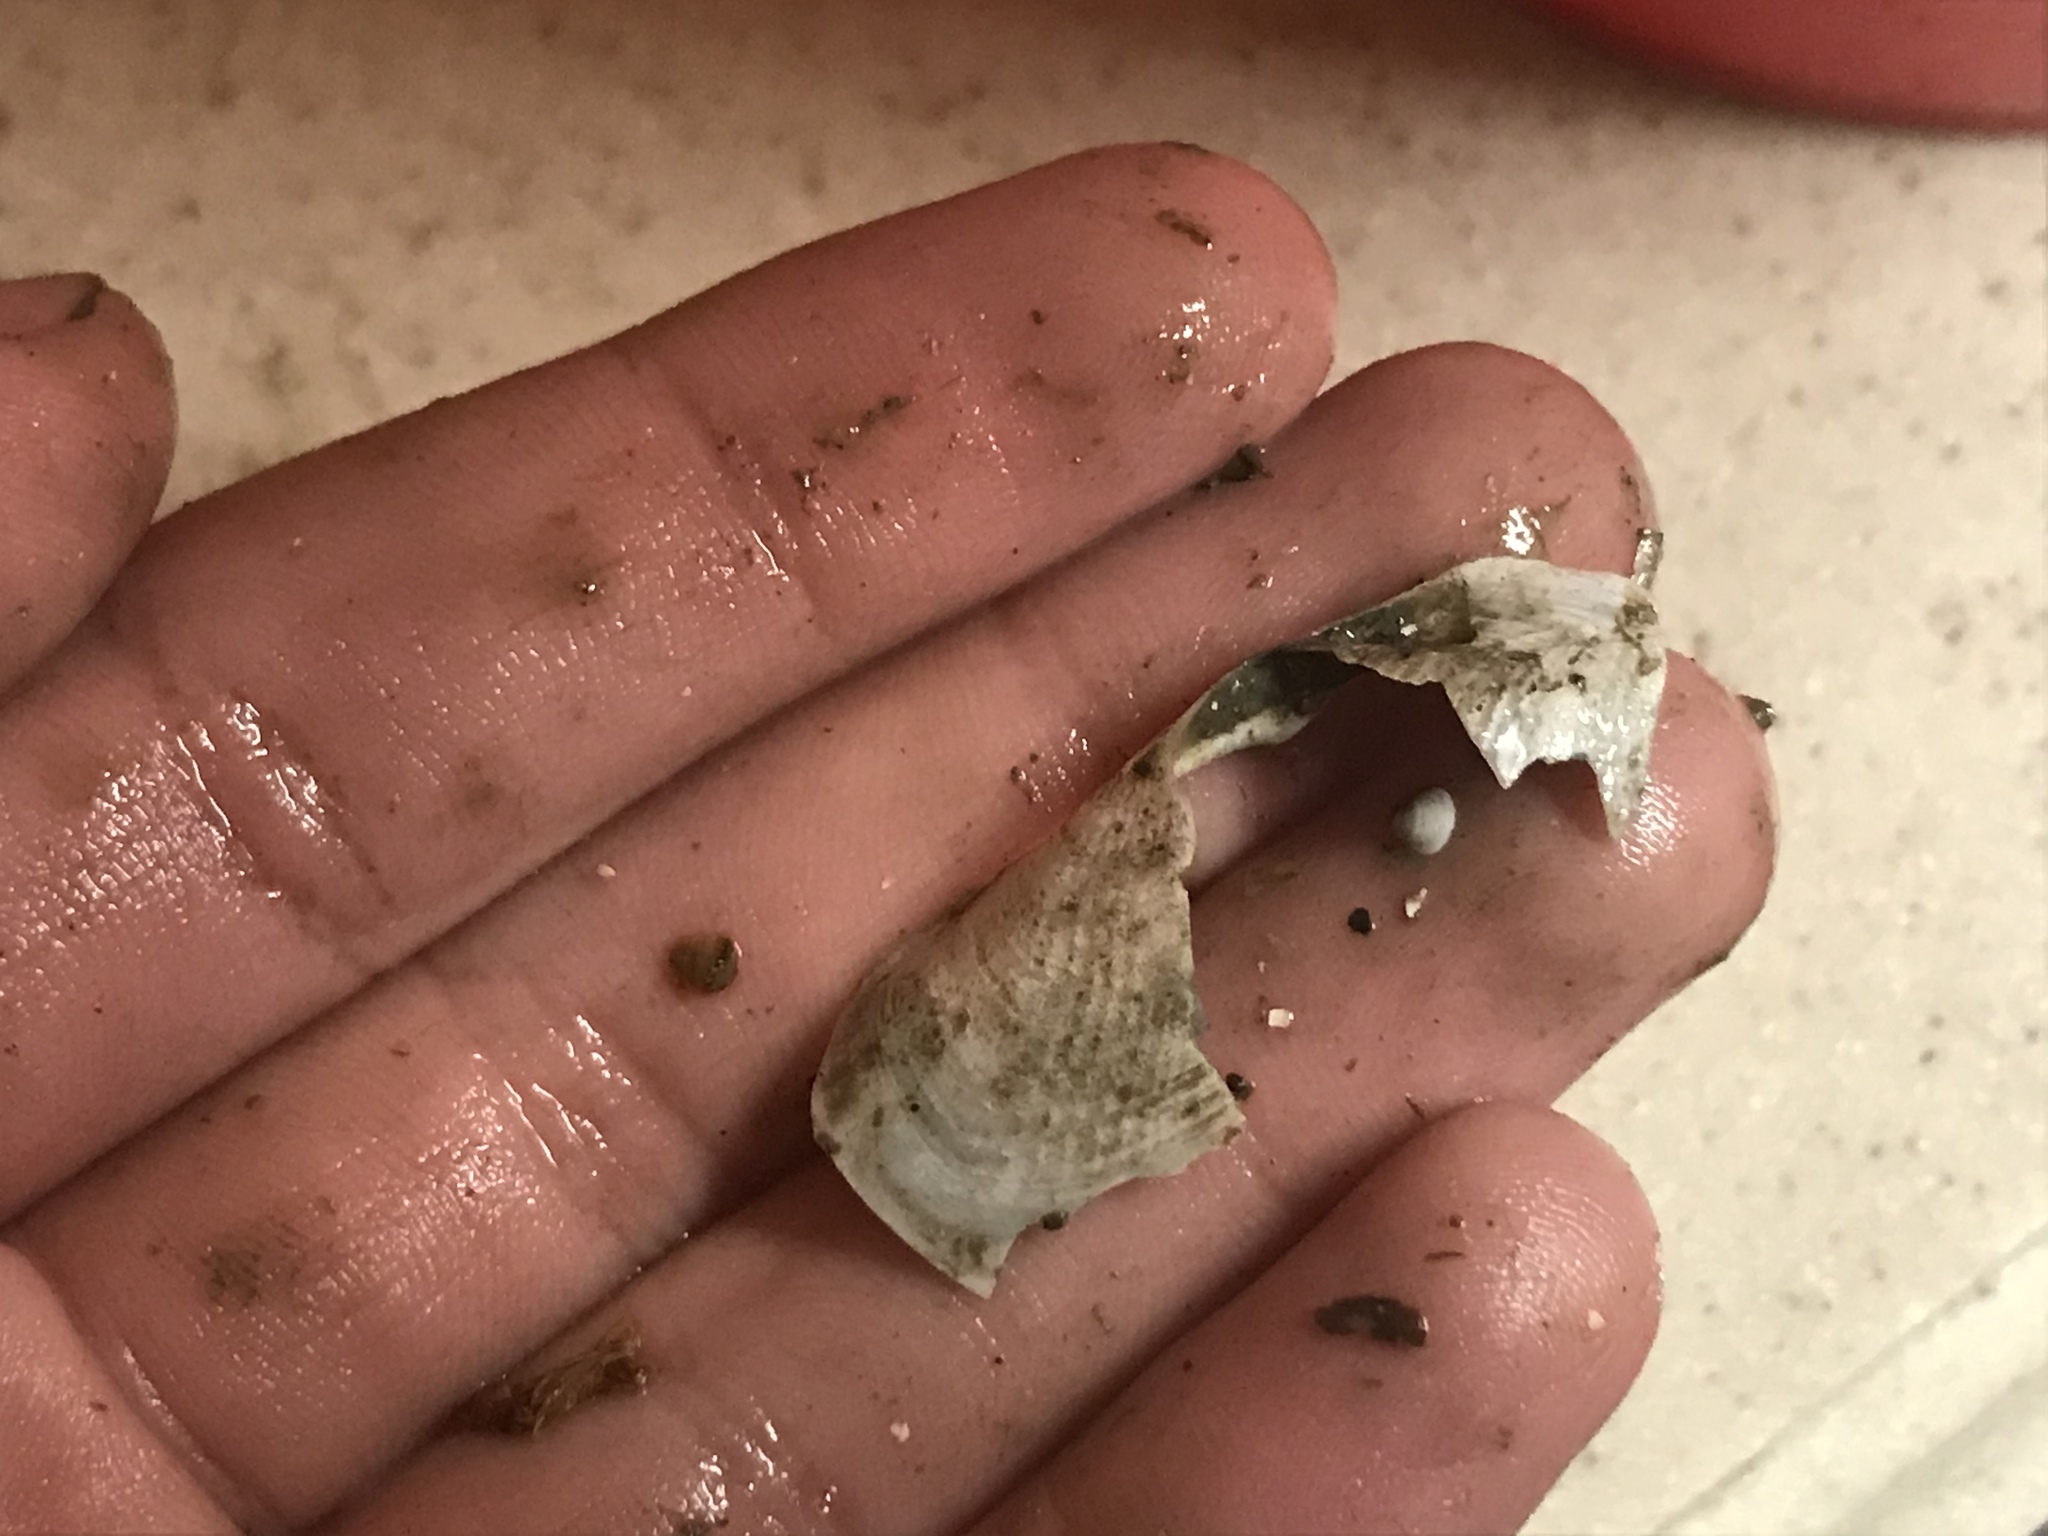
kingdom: Animalia
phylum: Mollusca
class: Bivalvia
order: Myida
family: Pholadidae
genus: Barnea
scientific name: Barnea subtruncata
